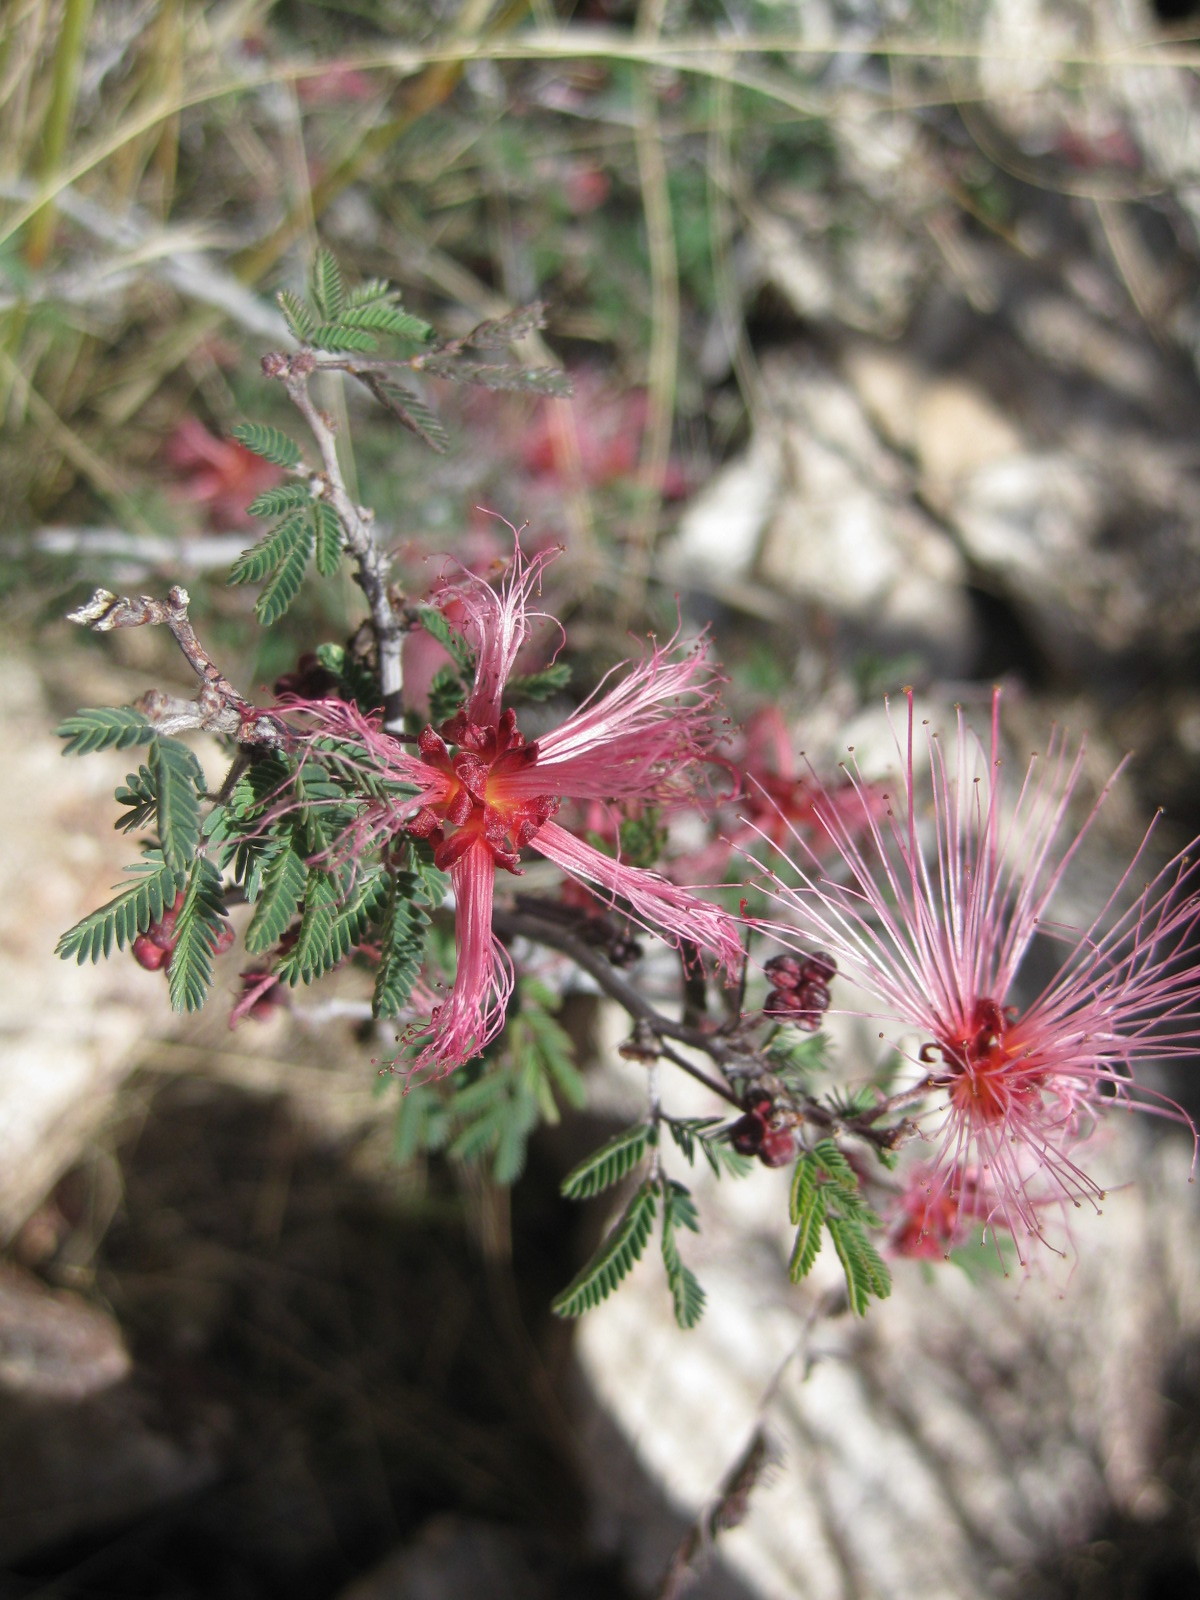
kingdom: Plantae
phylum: Tracheophyta
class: Magnoliopsida
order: Fabales
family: Fabaceae
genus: Calliandra
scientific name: Calliandra eriophylla
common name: Fairy-duster
